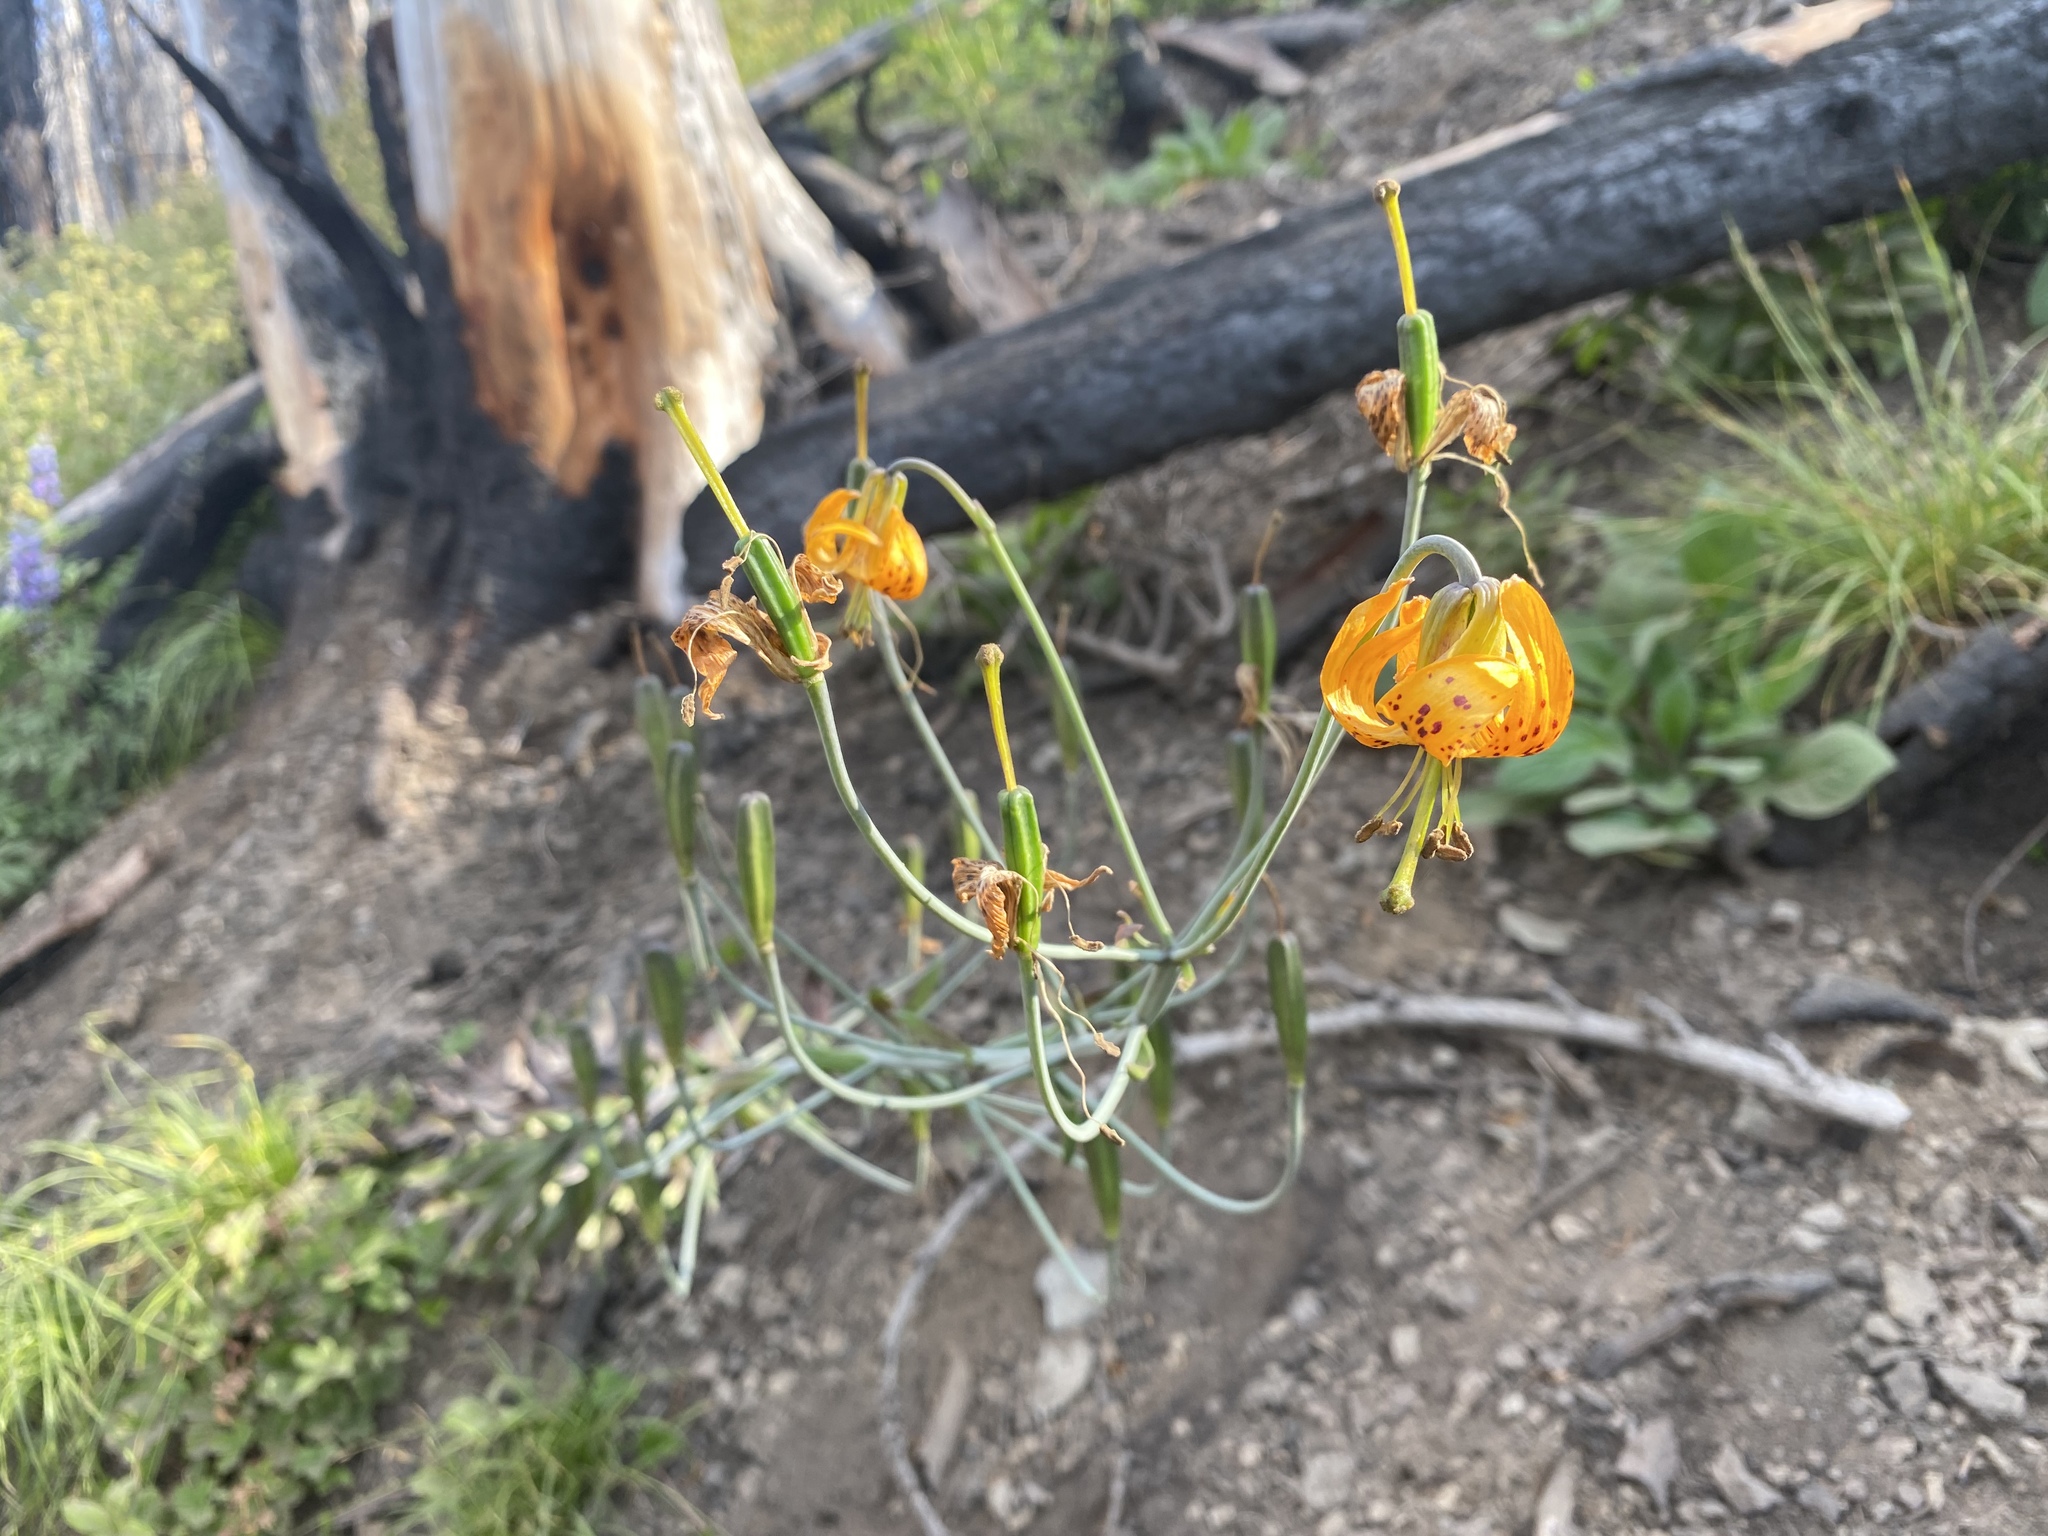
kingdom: Plantae
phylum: Tracheophyta
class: Liliopsida
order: Liliales
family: Liliaceae
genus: Lilium
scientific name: Lilium columbianum
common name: Columbia lily
